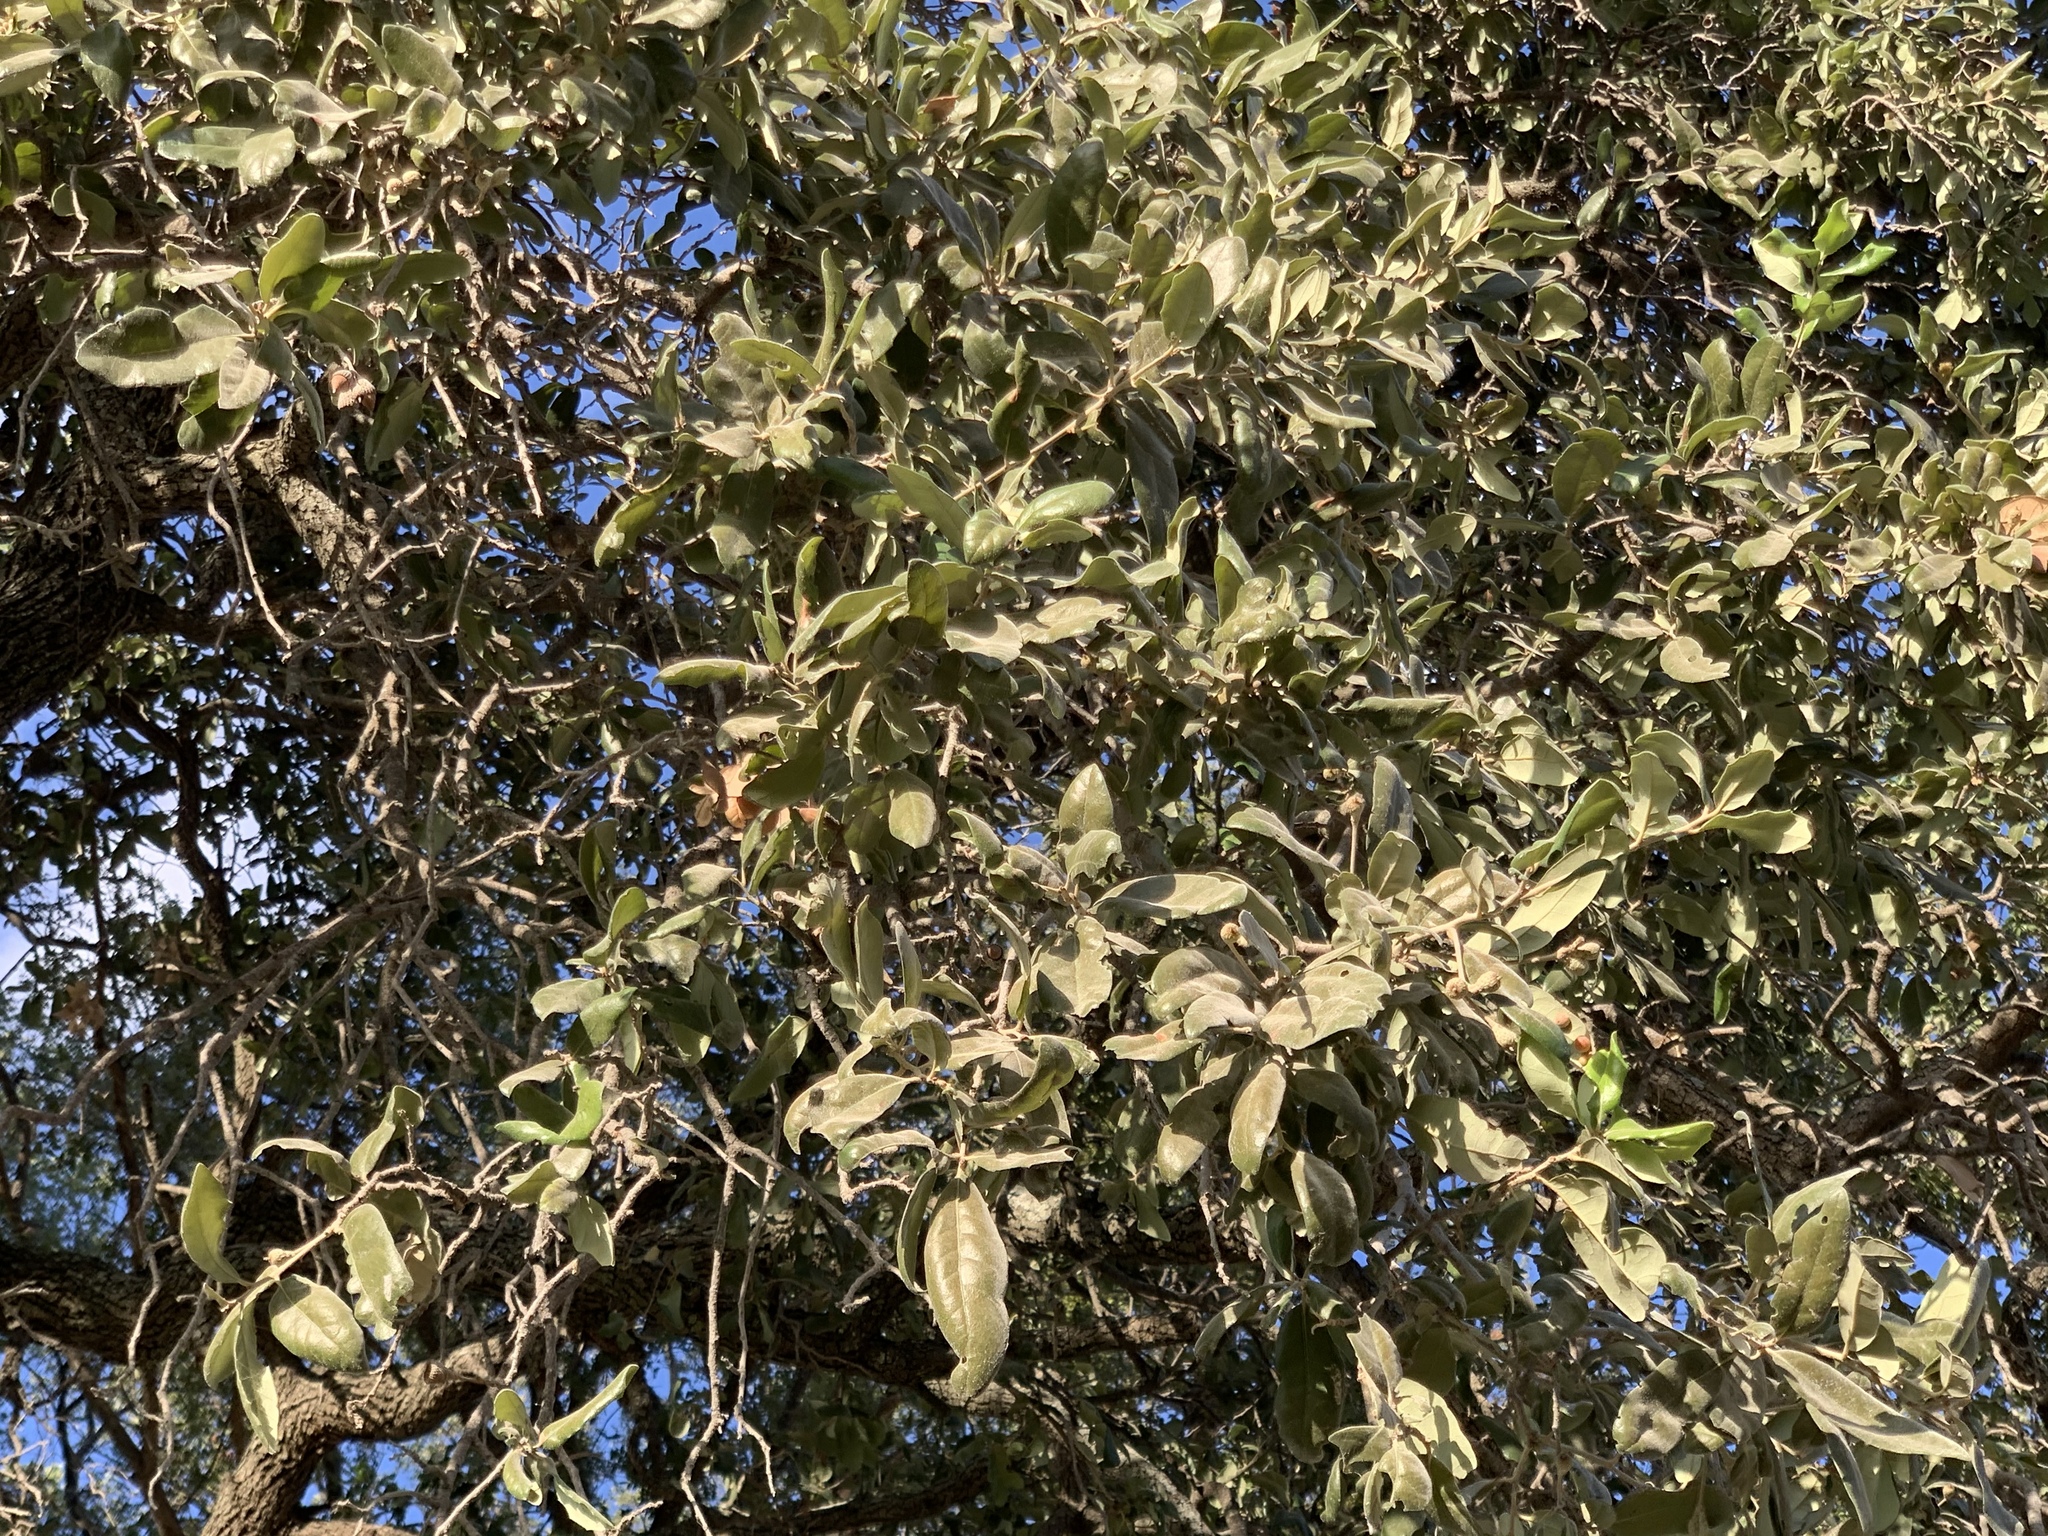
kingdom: Plantae
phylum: Tracheophyta
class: Magnoliopsida
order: Fagales
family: Fagaceae
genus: Quercus
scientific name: Quercus fusiformis
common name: Texas live oak
